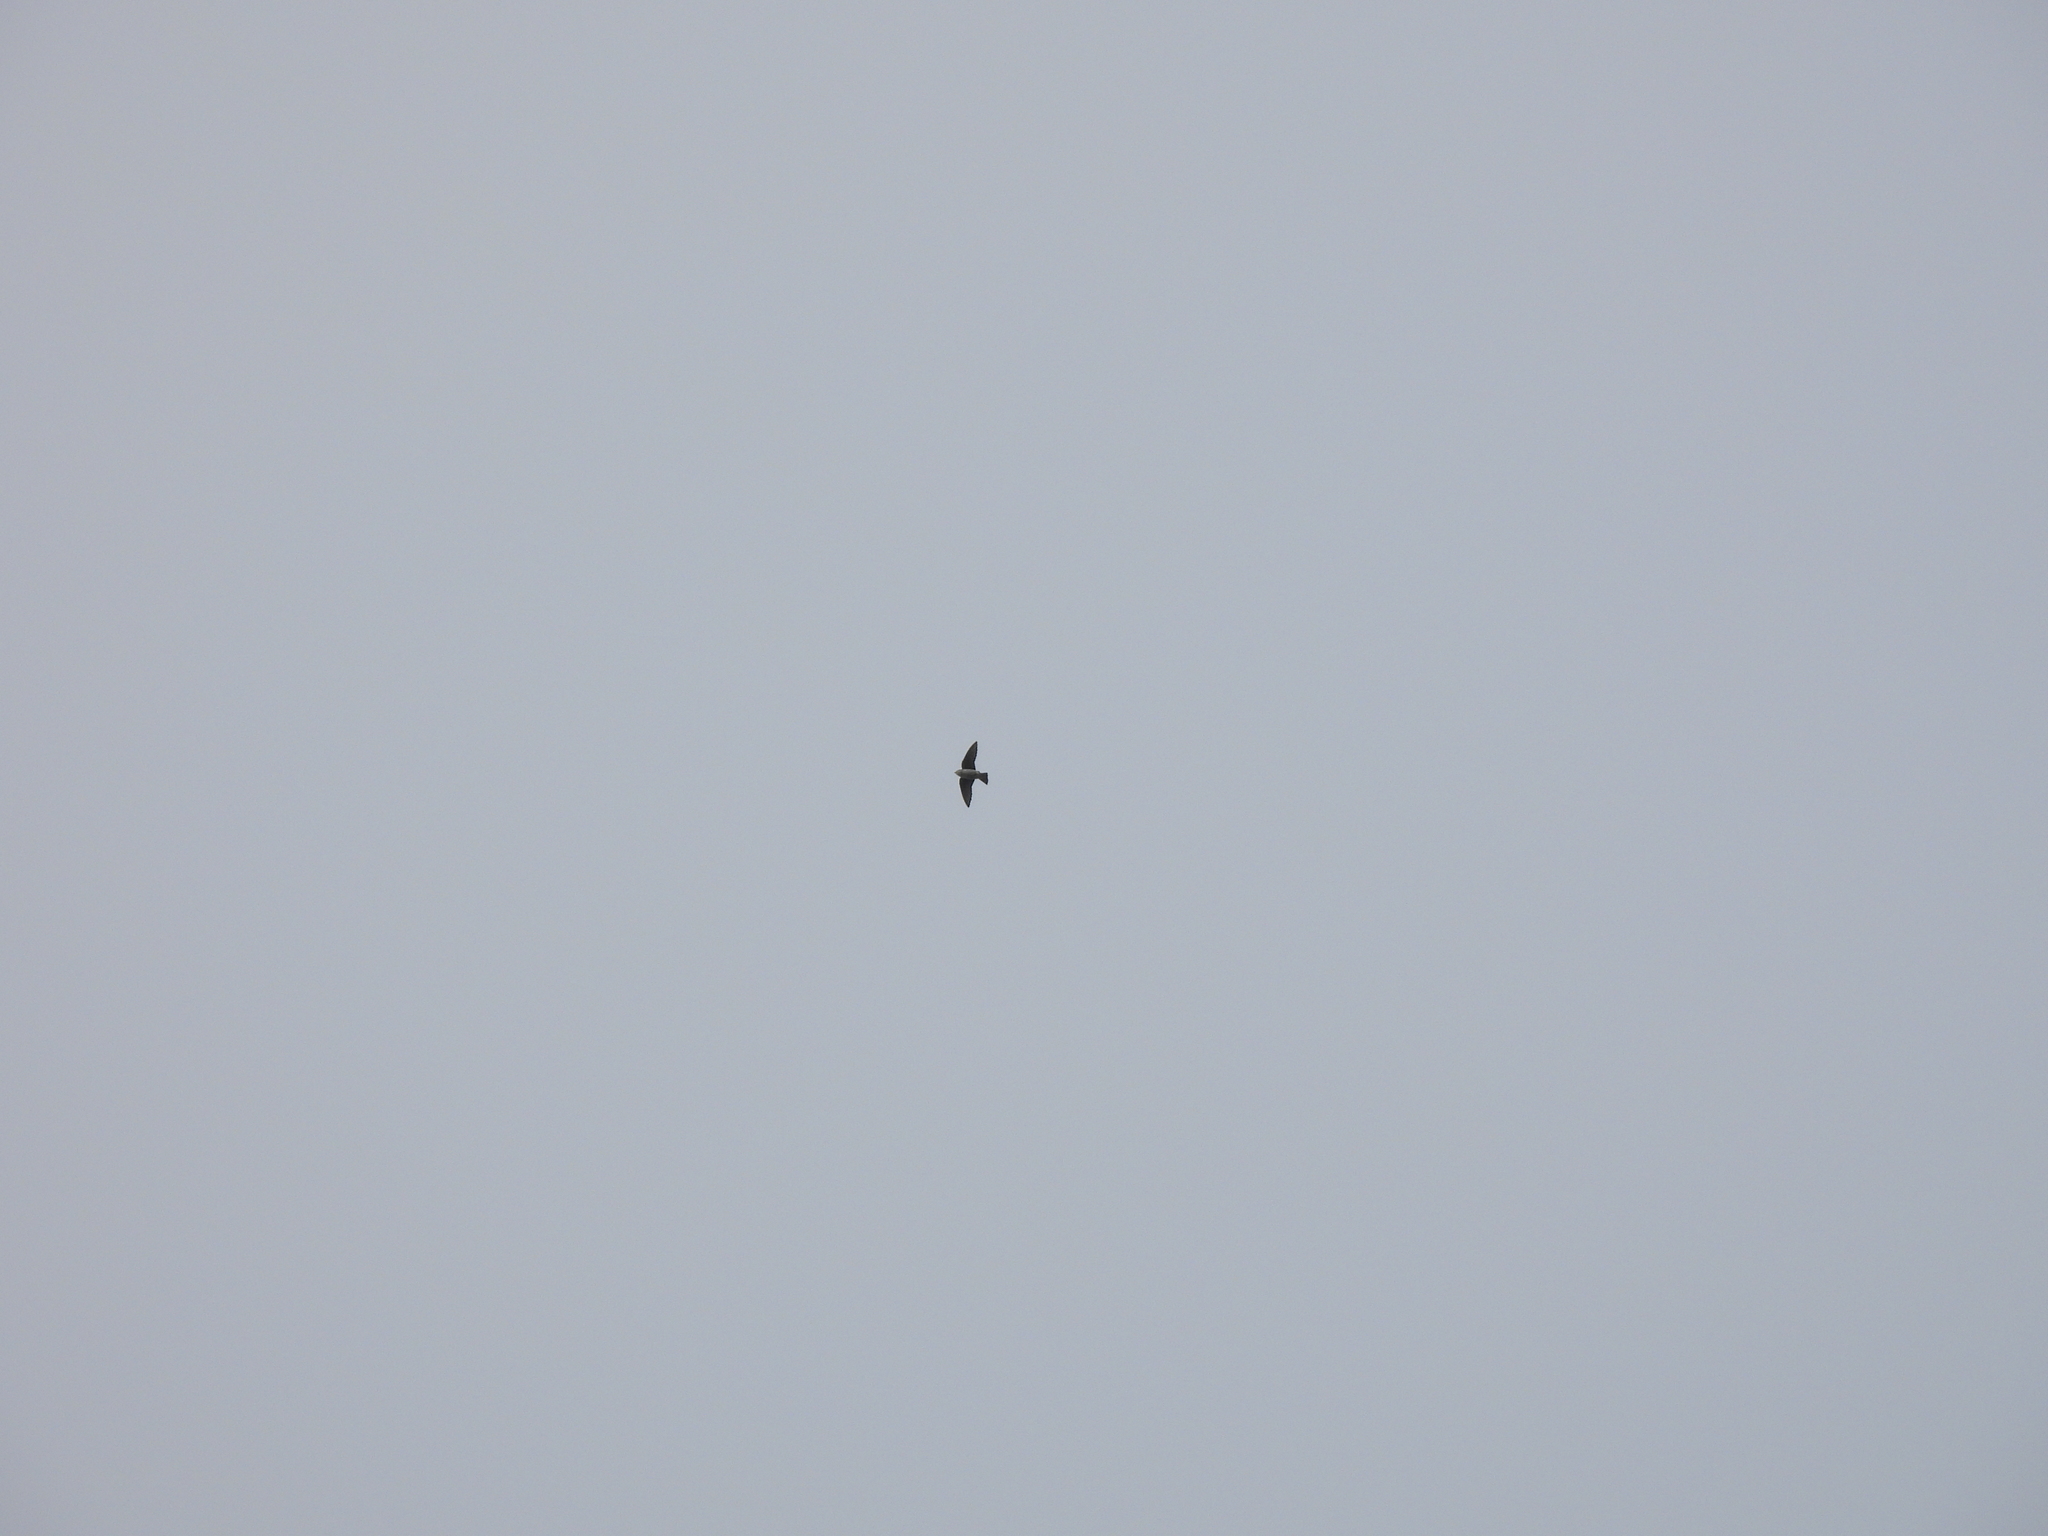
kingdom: Animalia
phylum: Chordata
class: Aves
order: Passeriformes
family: Hirundinidae
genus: Tachycineta
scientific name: Tachycineta bicolor
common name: Tree swallow
